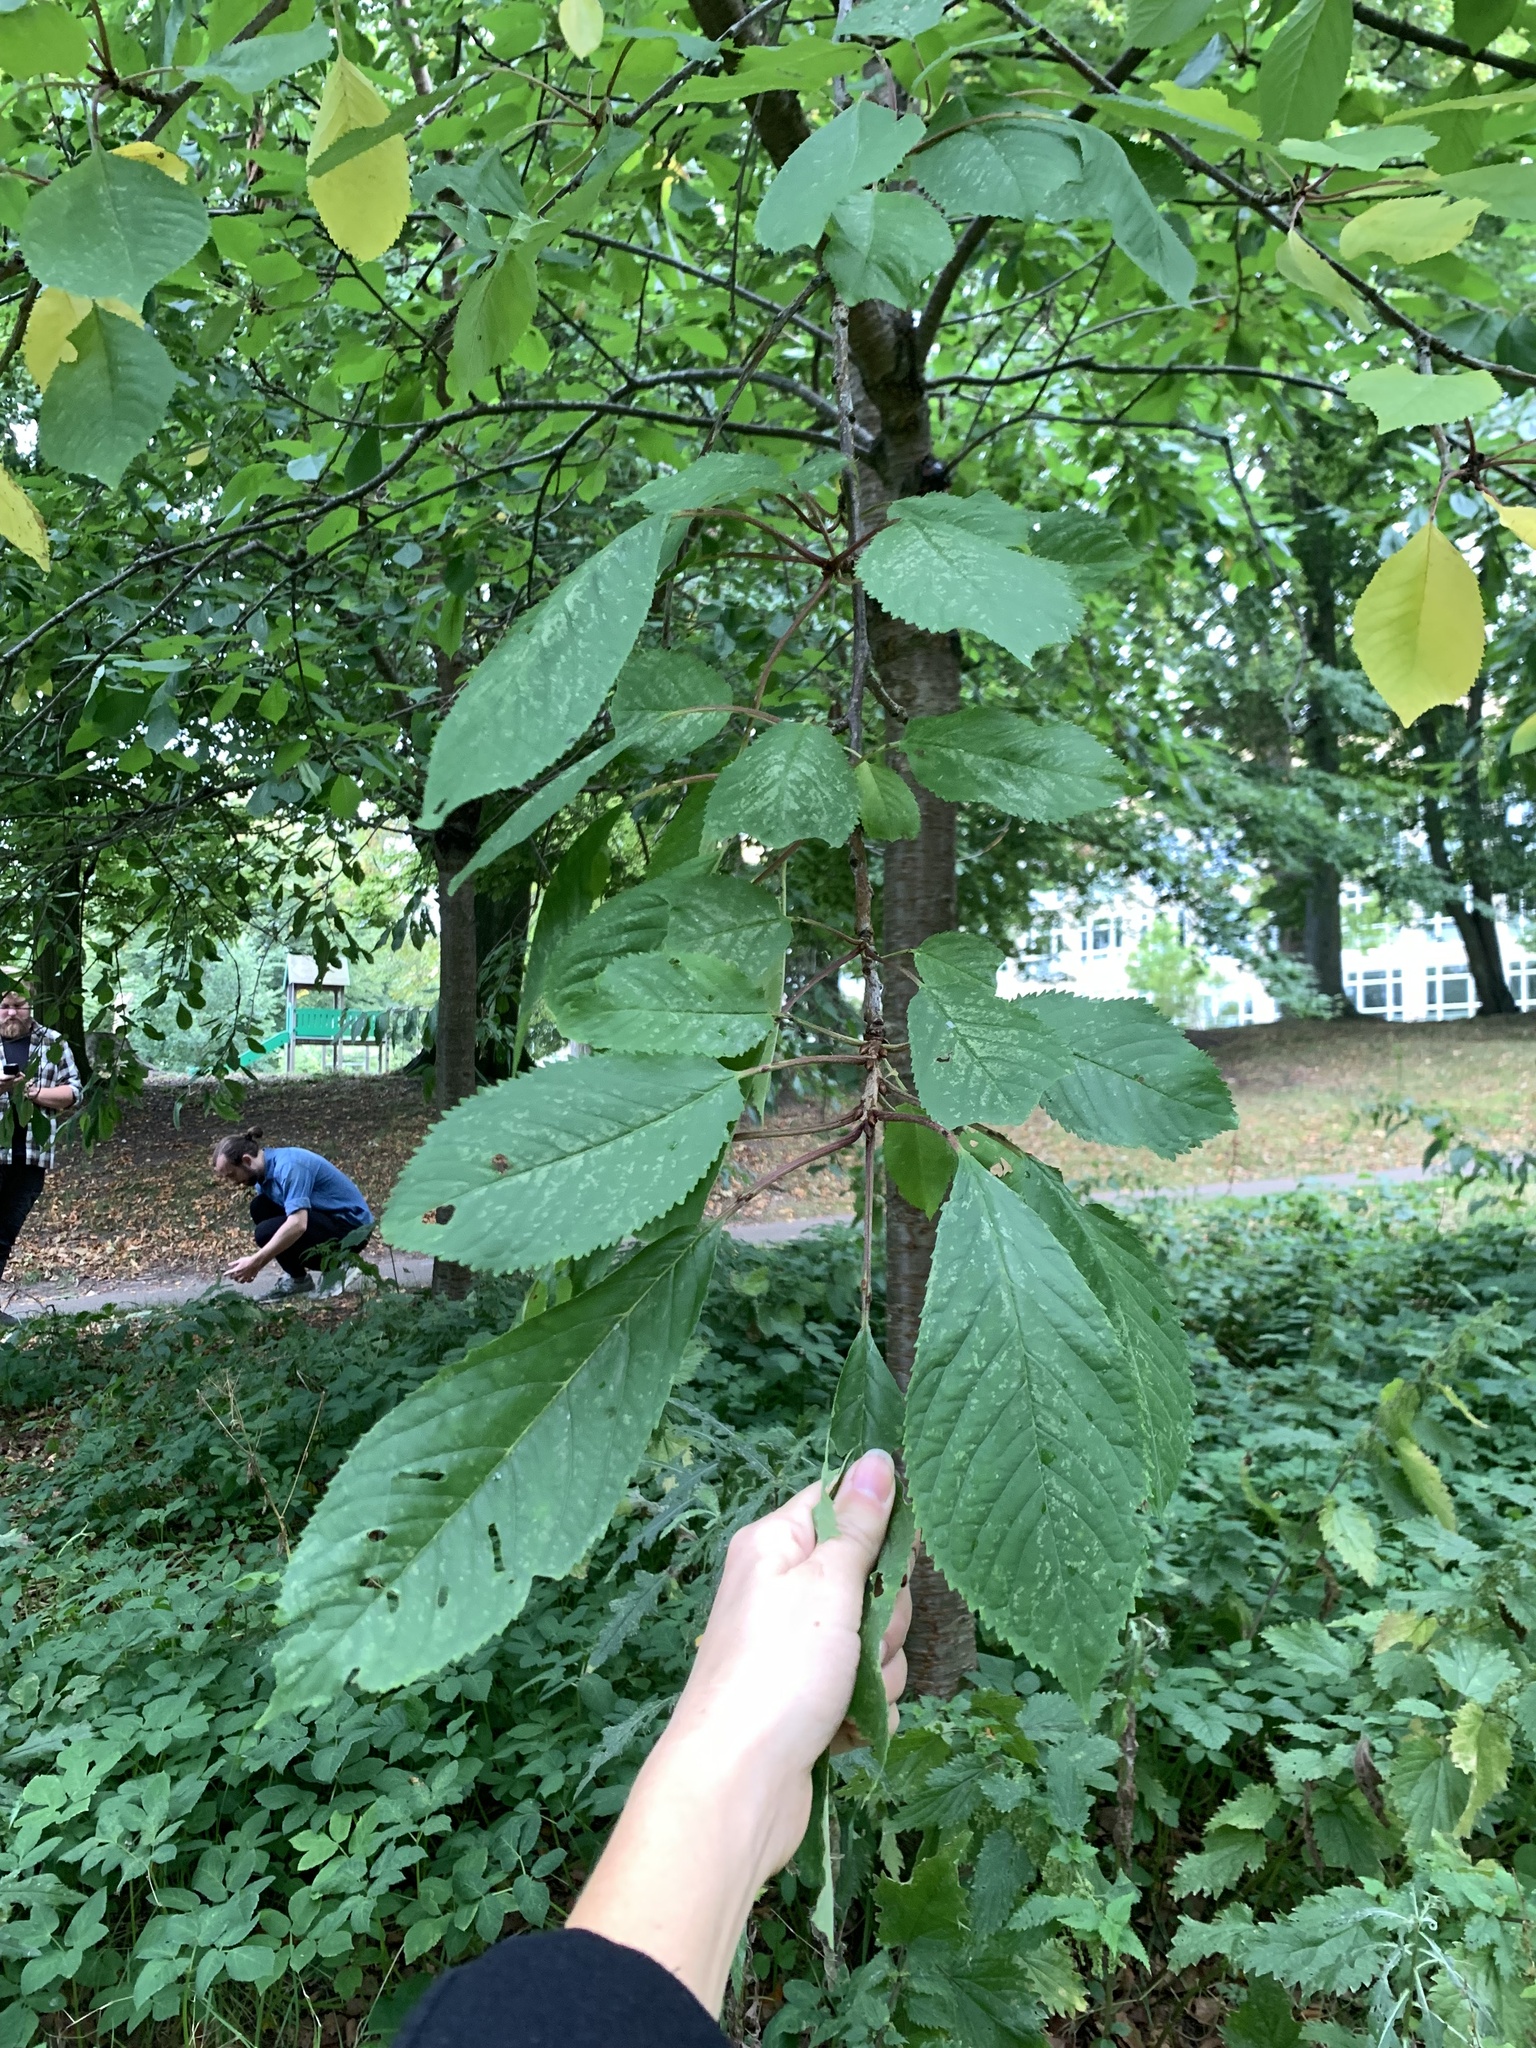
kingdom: Plantae
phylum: Tracheophyta
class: Magnoliopsida
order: Rosales
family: Rosaceae
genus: Prunus
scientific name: Prunus avium
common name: Sweet cherry
